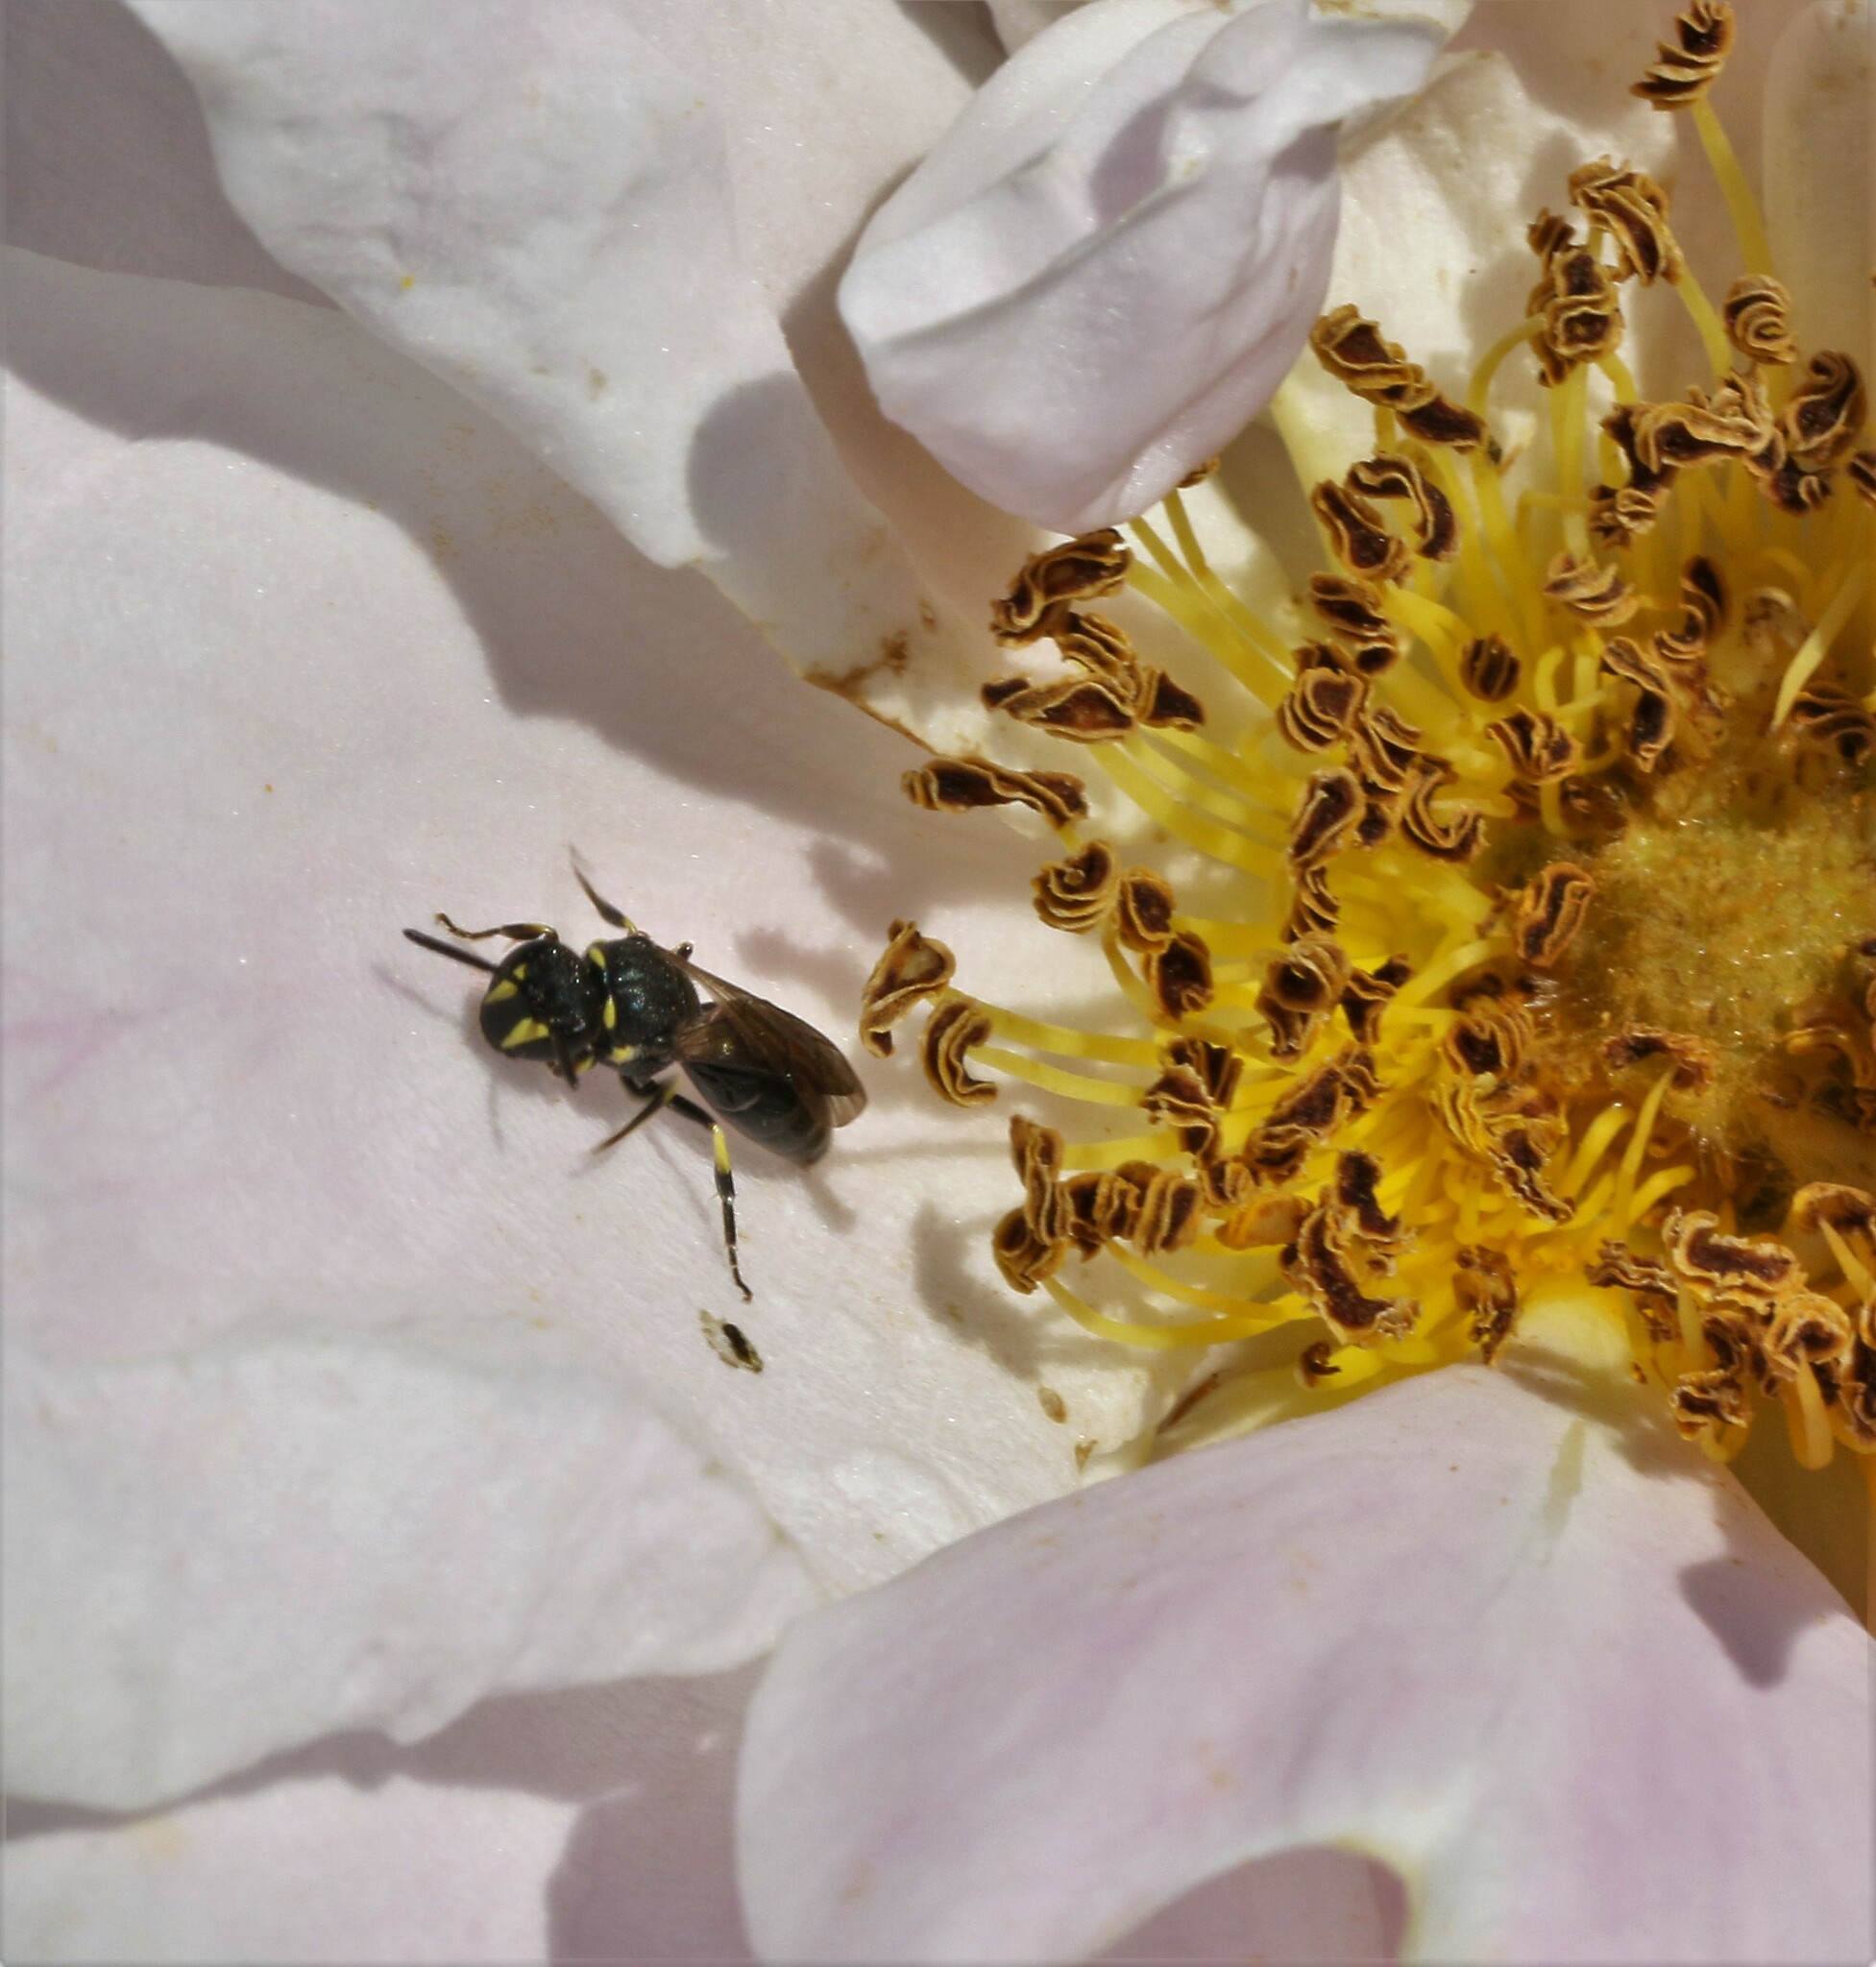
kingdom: Animalia
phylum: Arthropoda
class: Insecta
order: Hymenoptera
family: Colletidae
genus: Hylaeus
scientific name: Hylaeus modestus
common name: Yellow-faced bee
